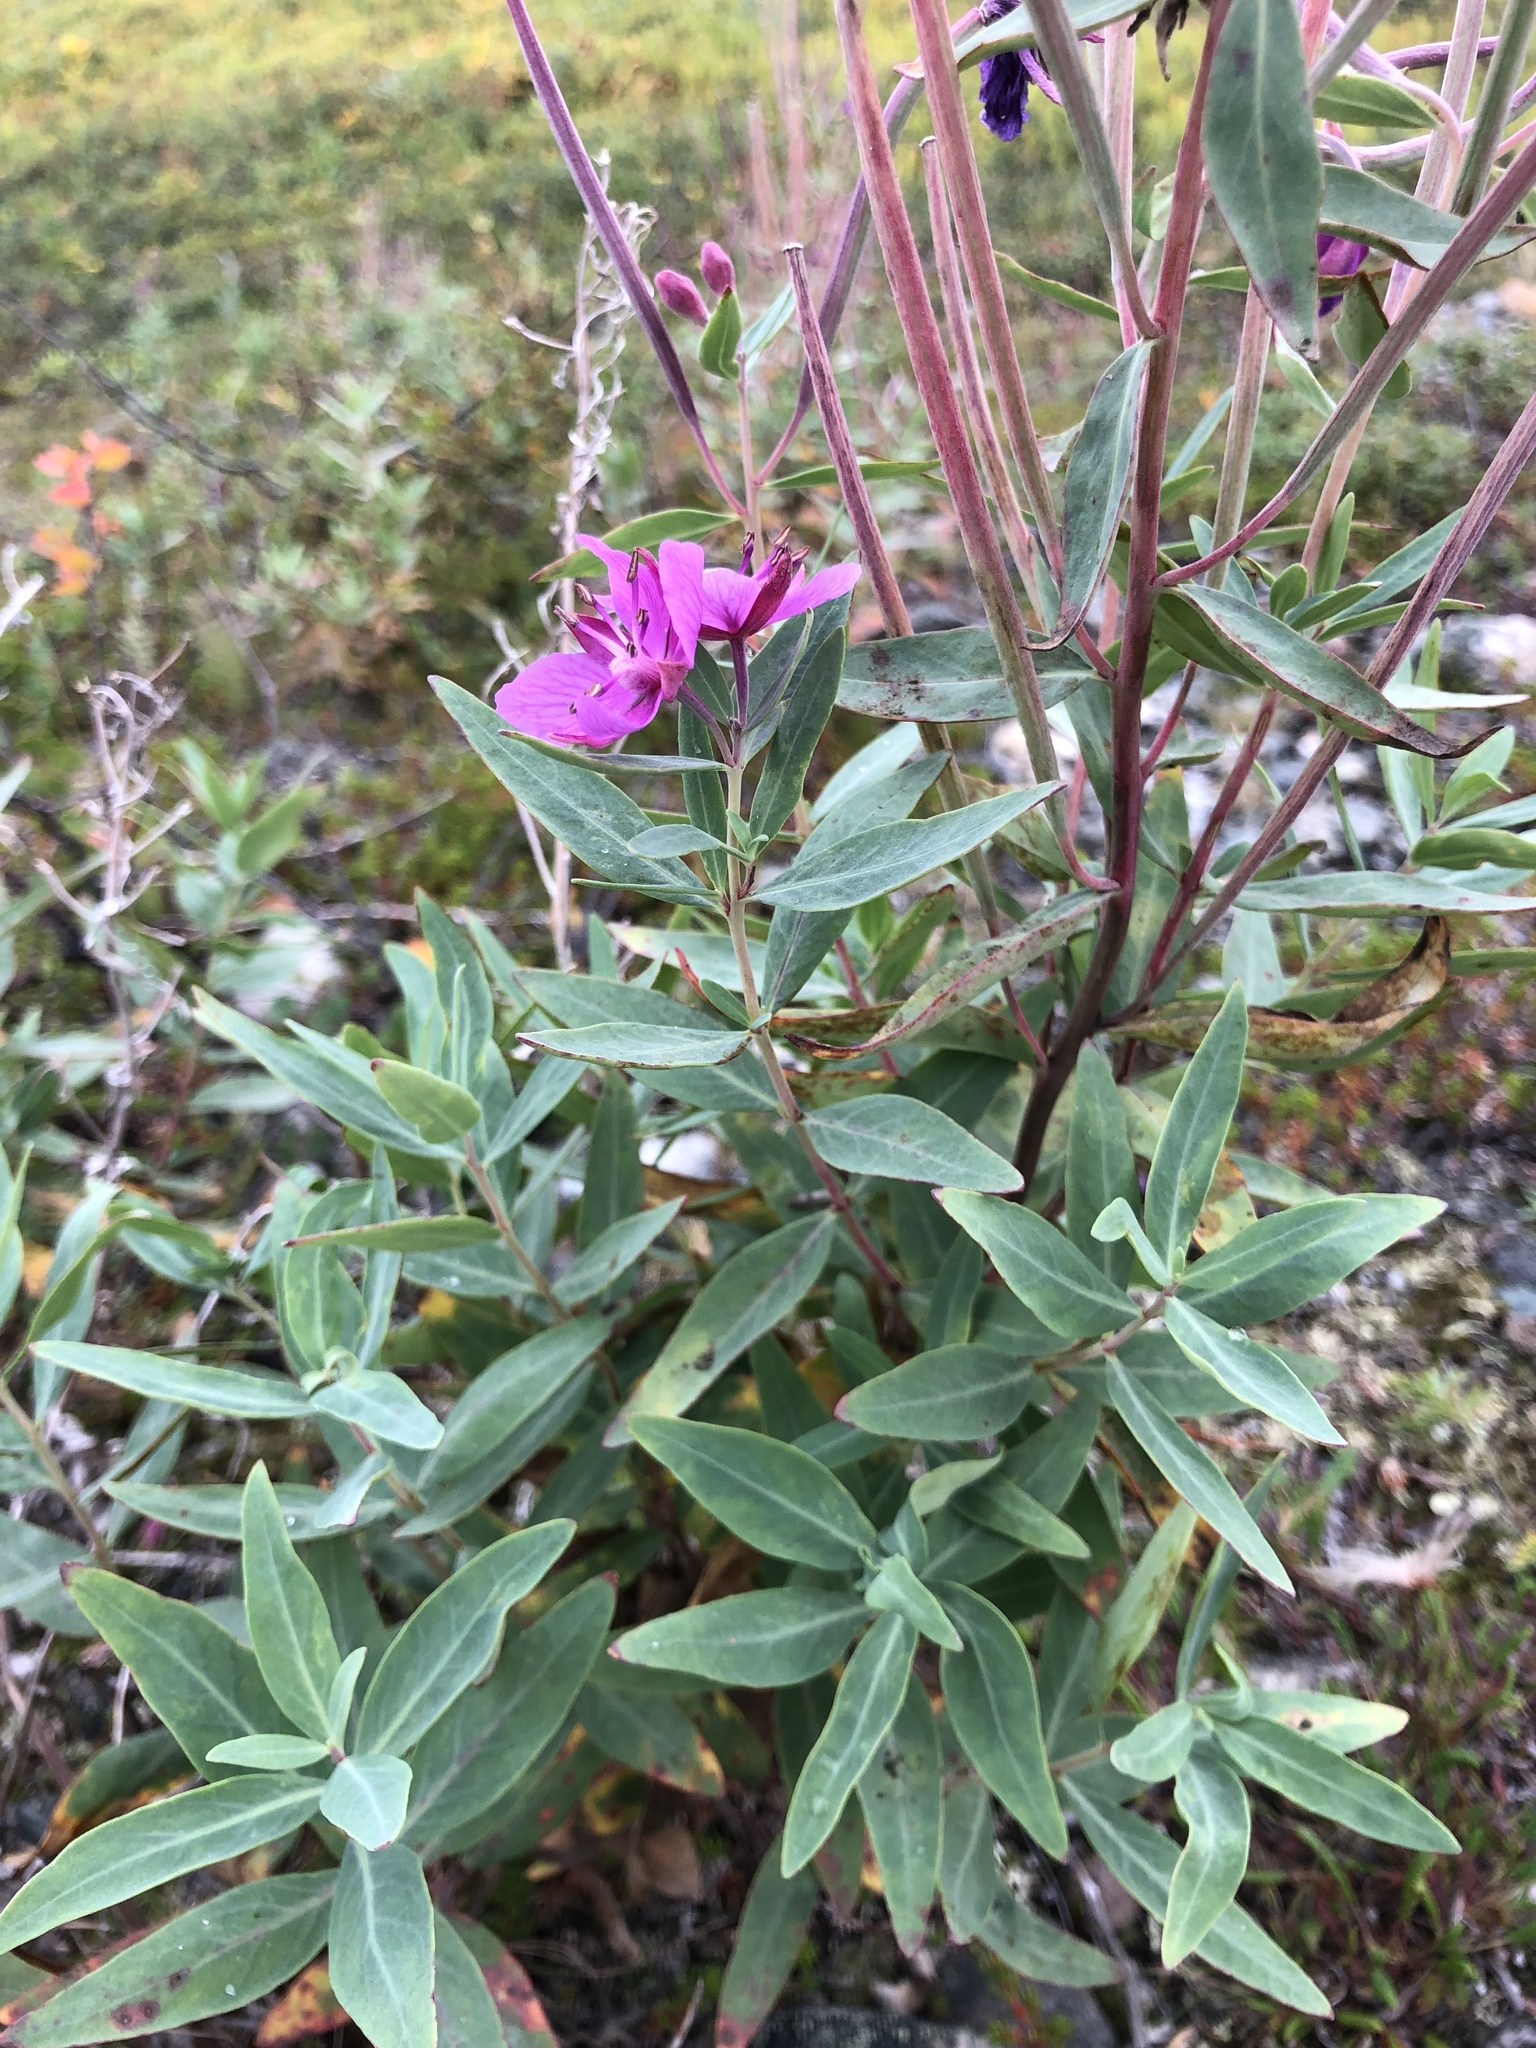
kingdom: Plantae
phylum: Tracheophyta
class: Magnoliopsida
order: Myrtales
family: Onagraceae
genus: Chamaenerion
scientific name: Chamaenerion latifolium
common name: Dwarf fireweed
